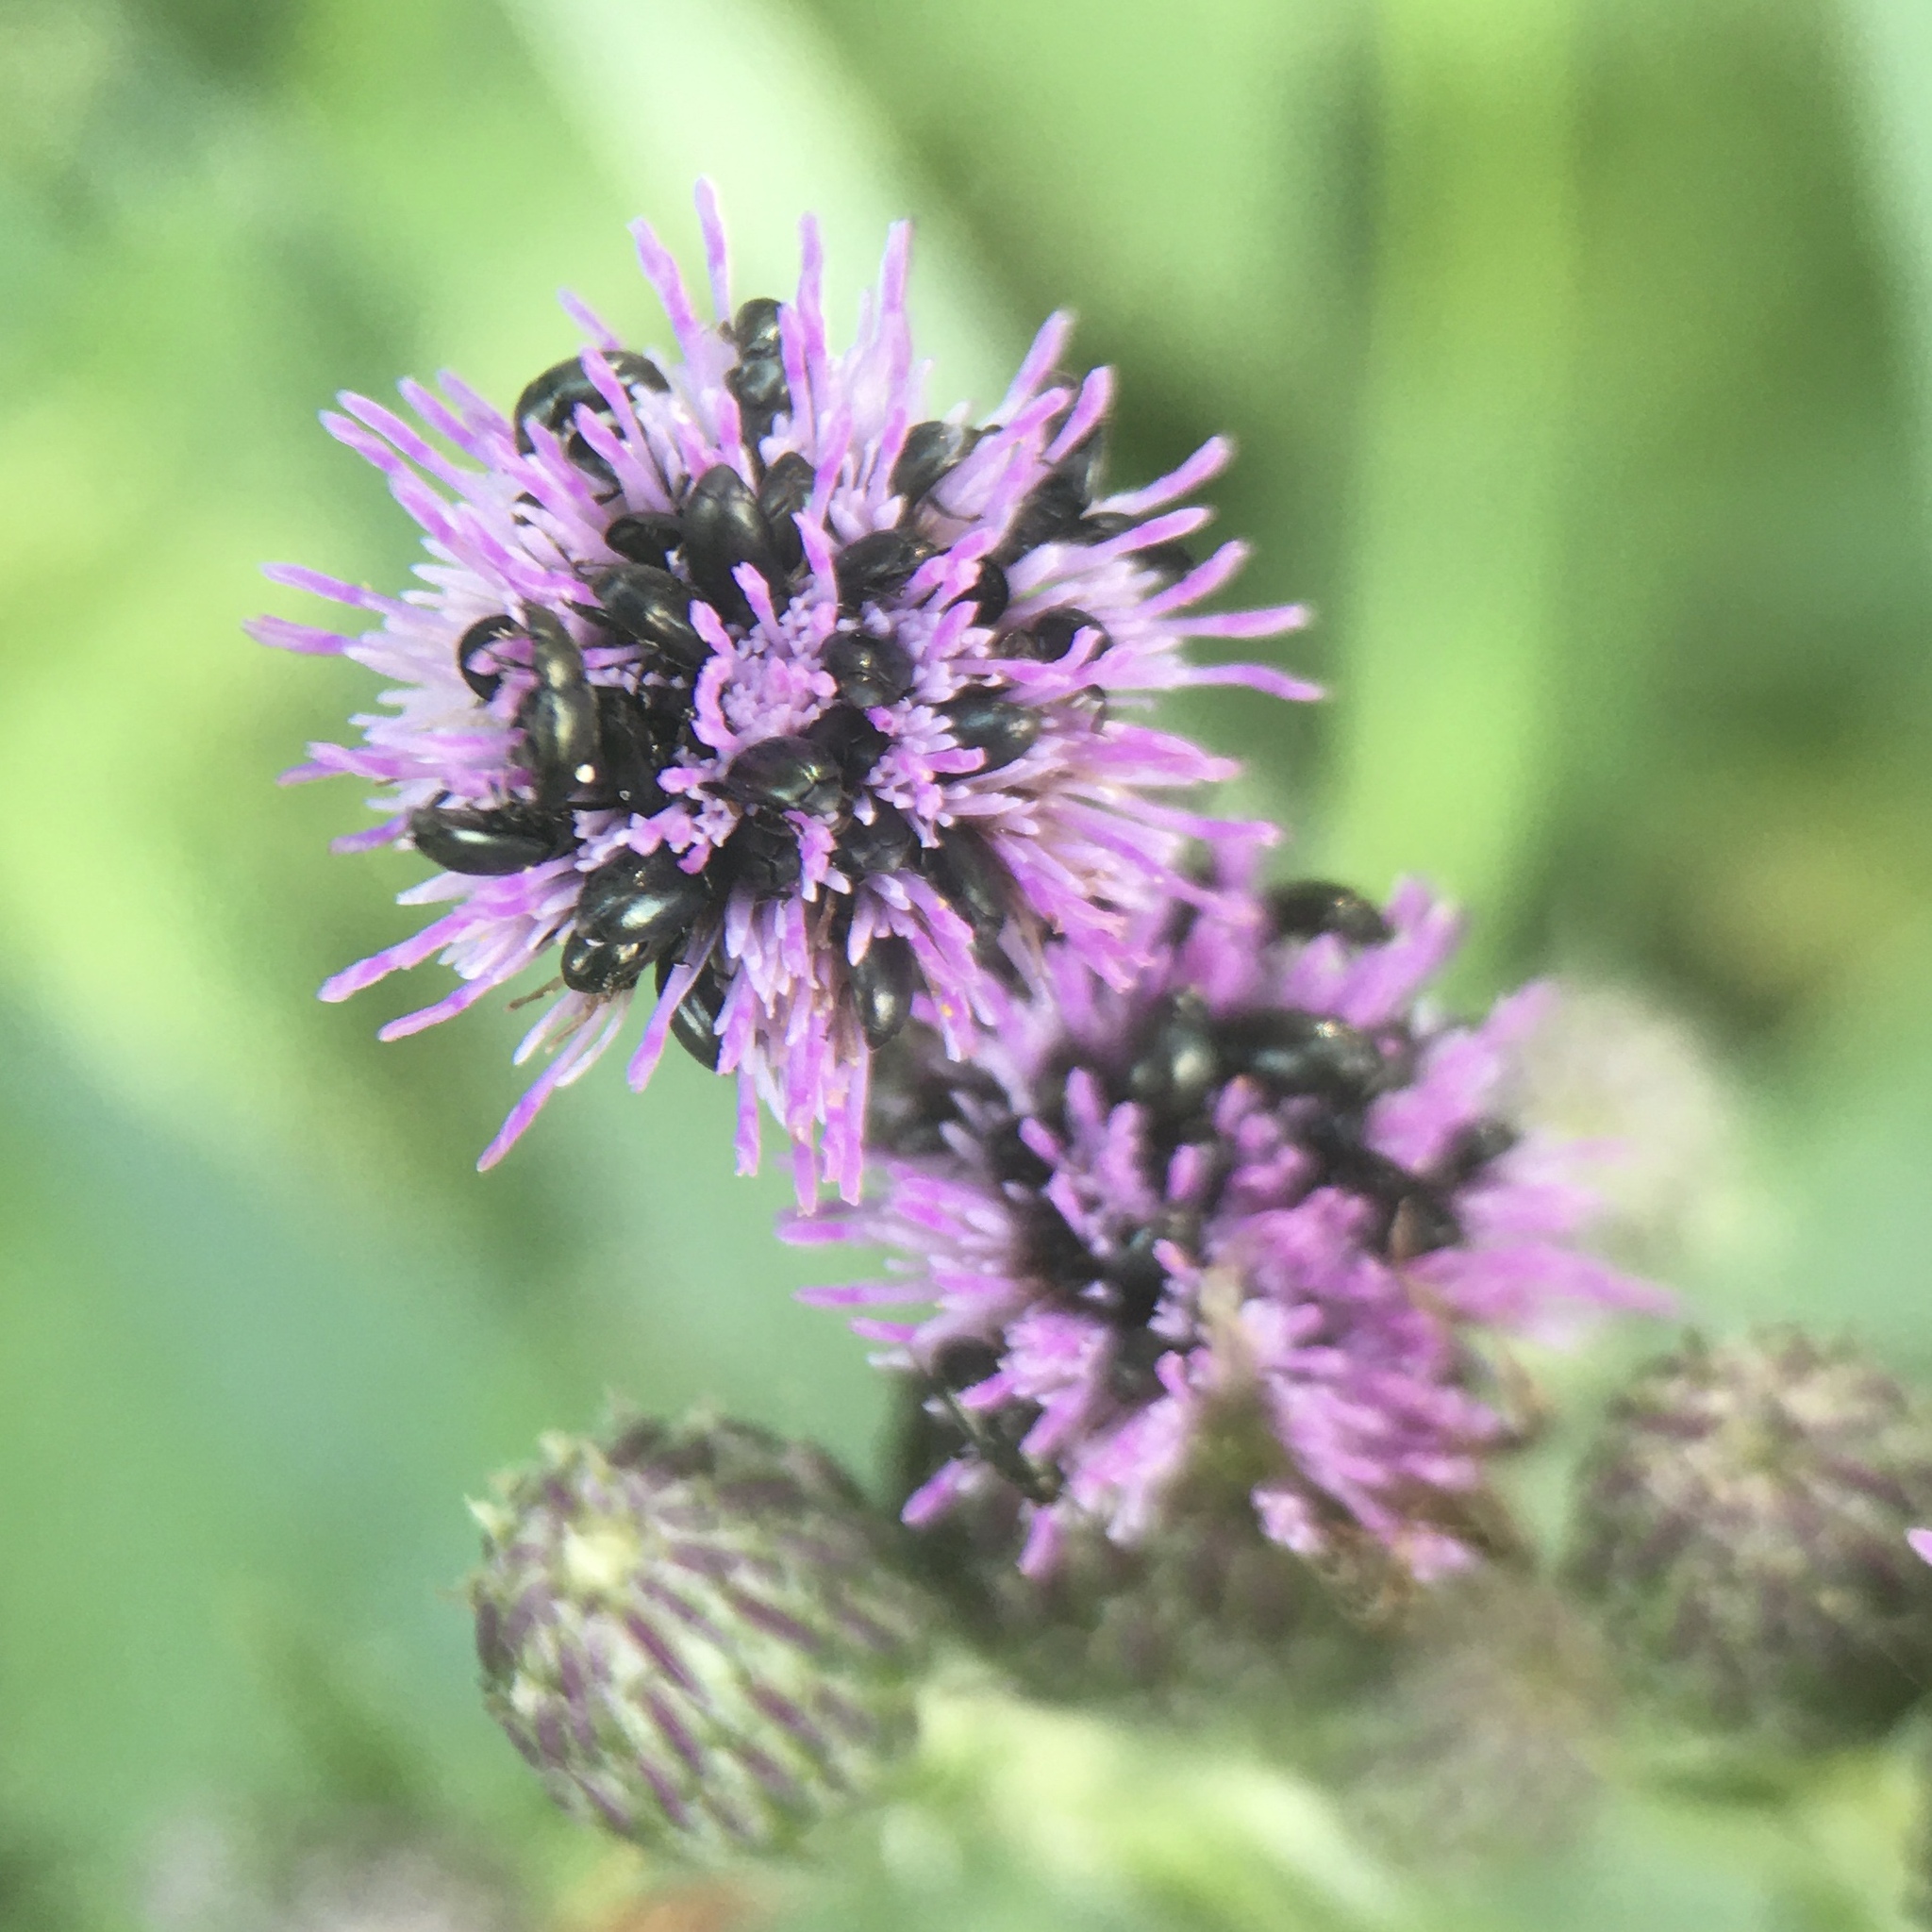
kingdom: Plantae
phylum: Tracheophyta
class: Magnoliopsida
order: Asterales
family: Asteraceae
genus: Cirsium
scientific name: Cirsium arvense
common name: Creeping thistle
